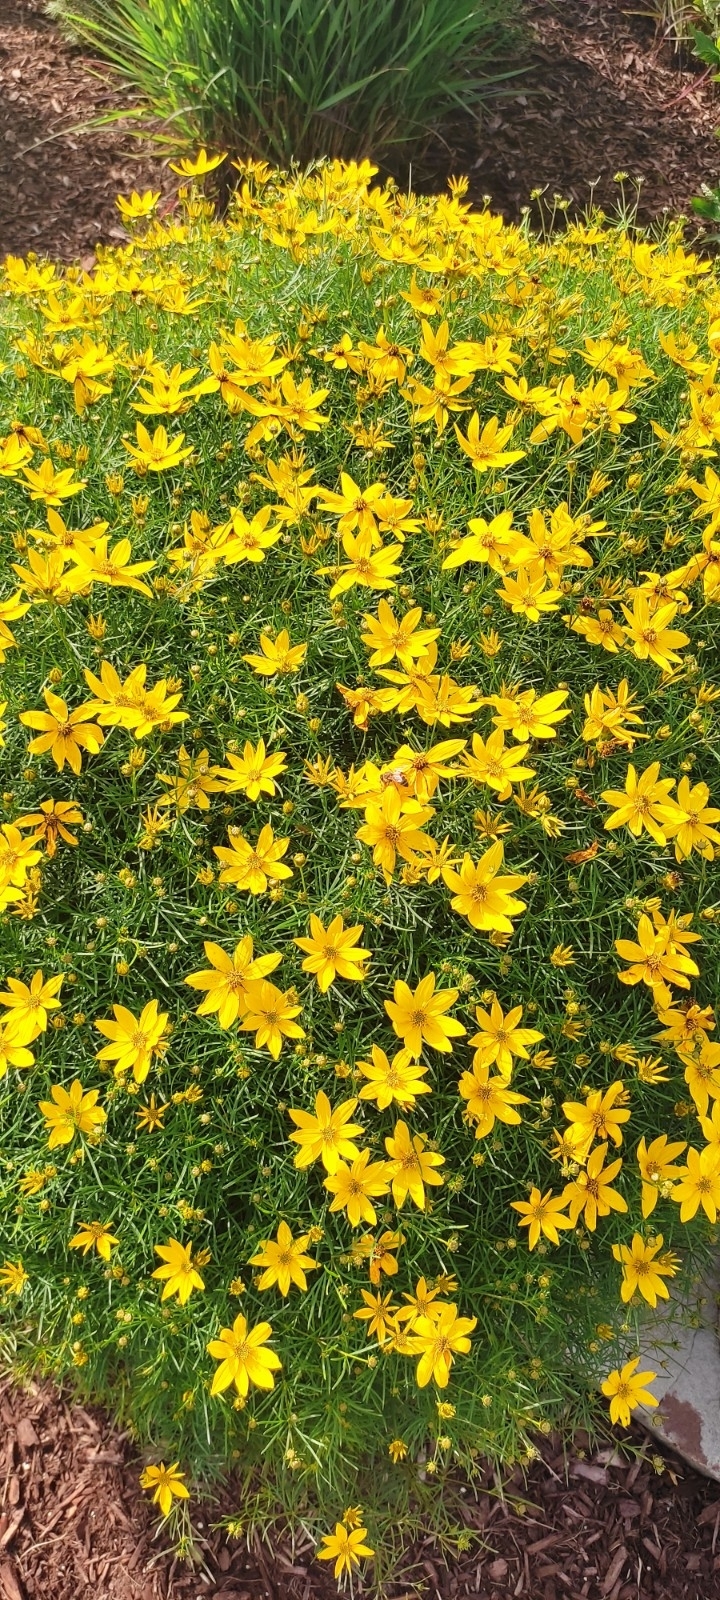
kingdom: Plantae
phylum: Tracheophyta
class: Magnoliopsida
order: Asterales
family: Asteraceae
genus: Coreopsis
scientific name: Coreopsis verticillata
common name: Whorled tickseed
